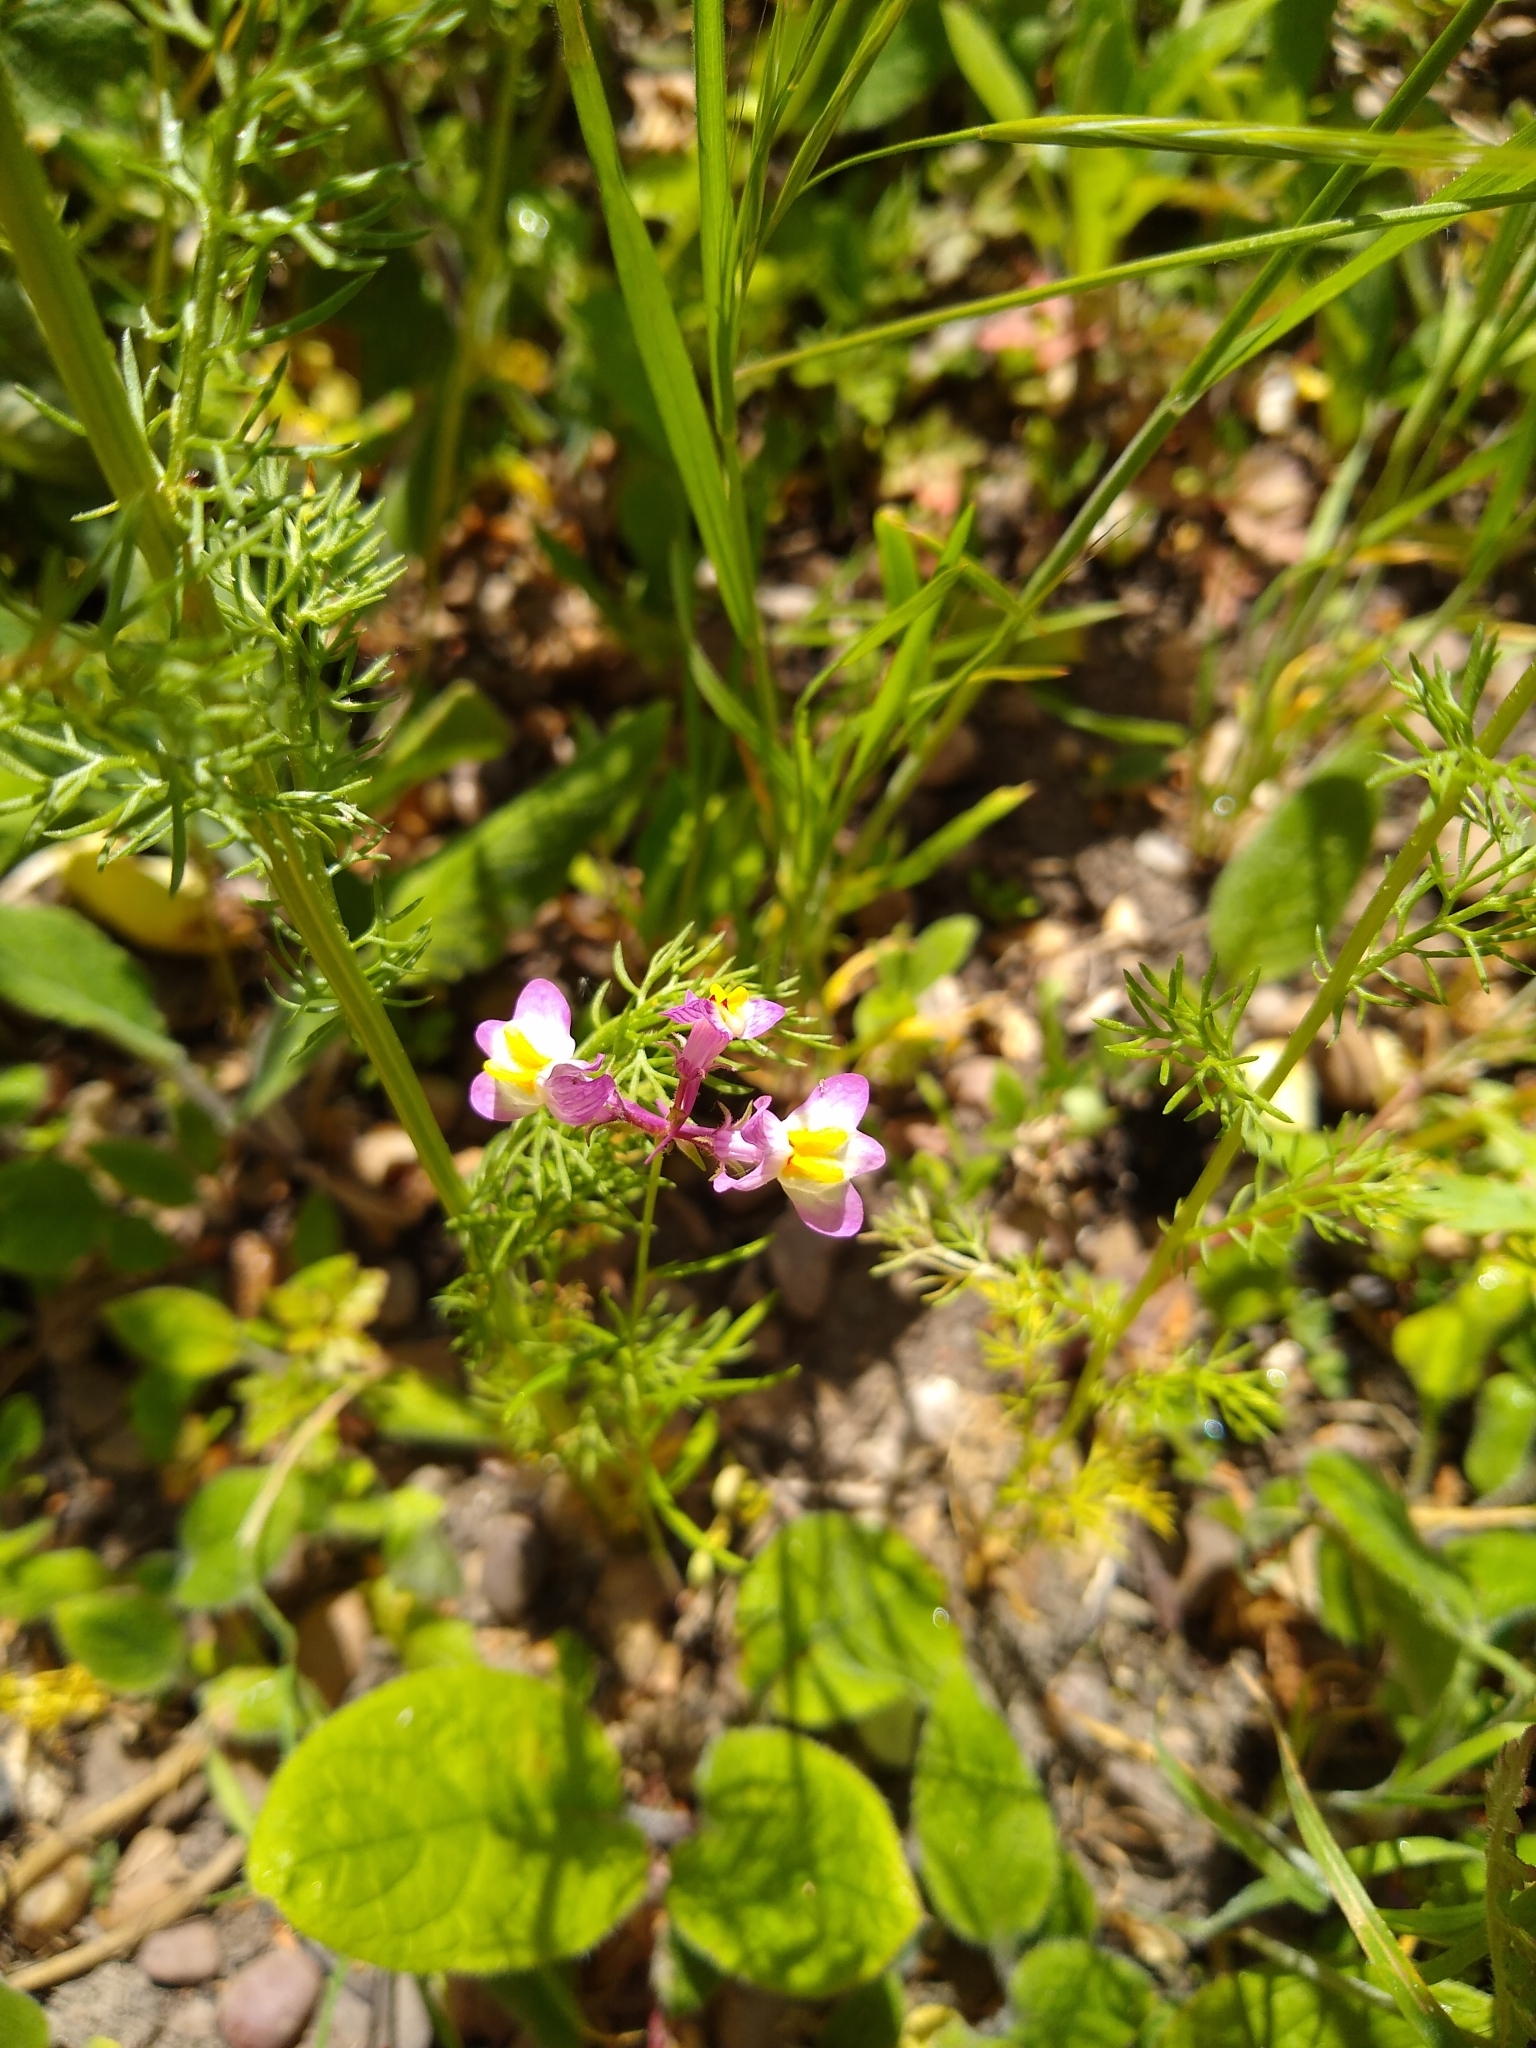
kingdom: Plantae
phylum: Tracheophyta
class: Magnoliopsida
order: Lamiales
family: Plantaginaceae
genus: Linaria
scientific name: Linaria maroccana
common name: Moroccan toadflax
